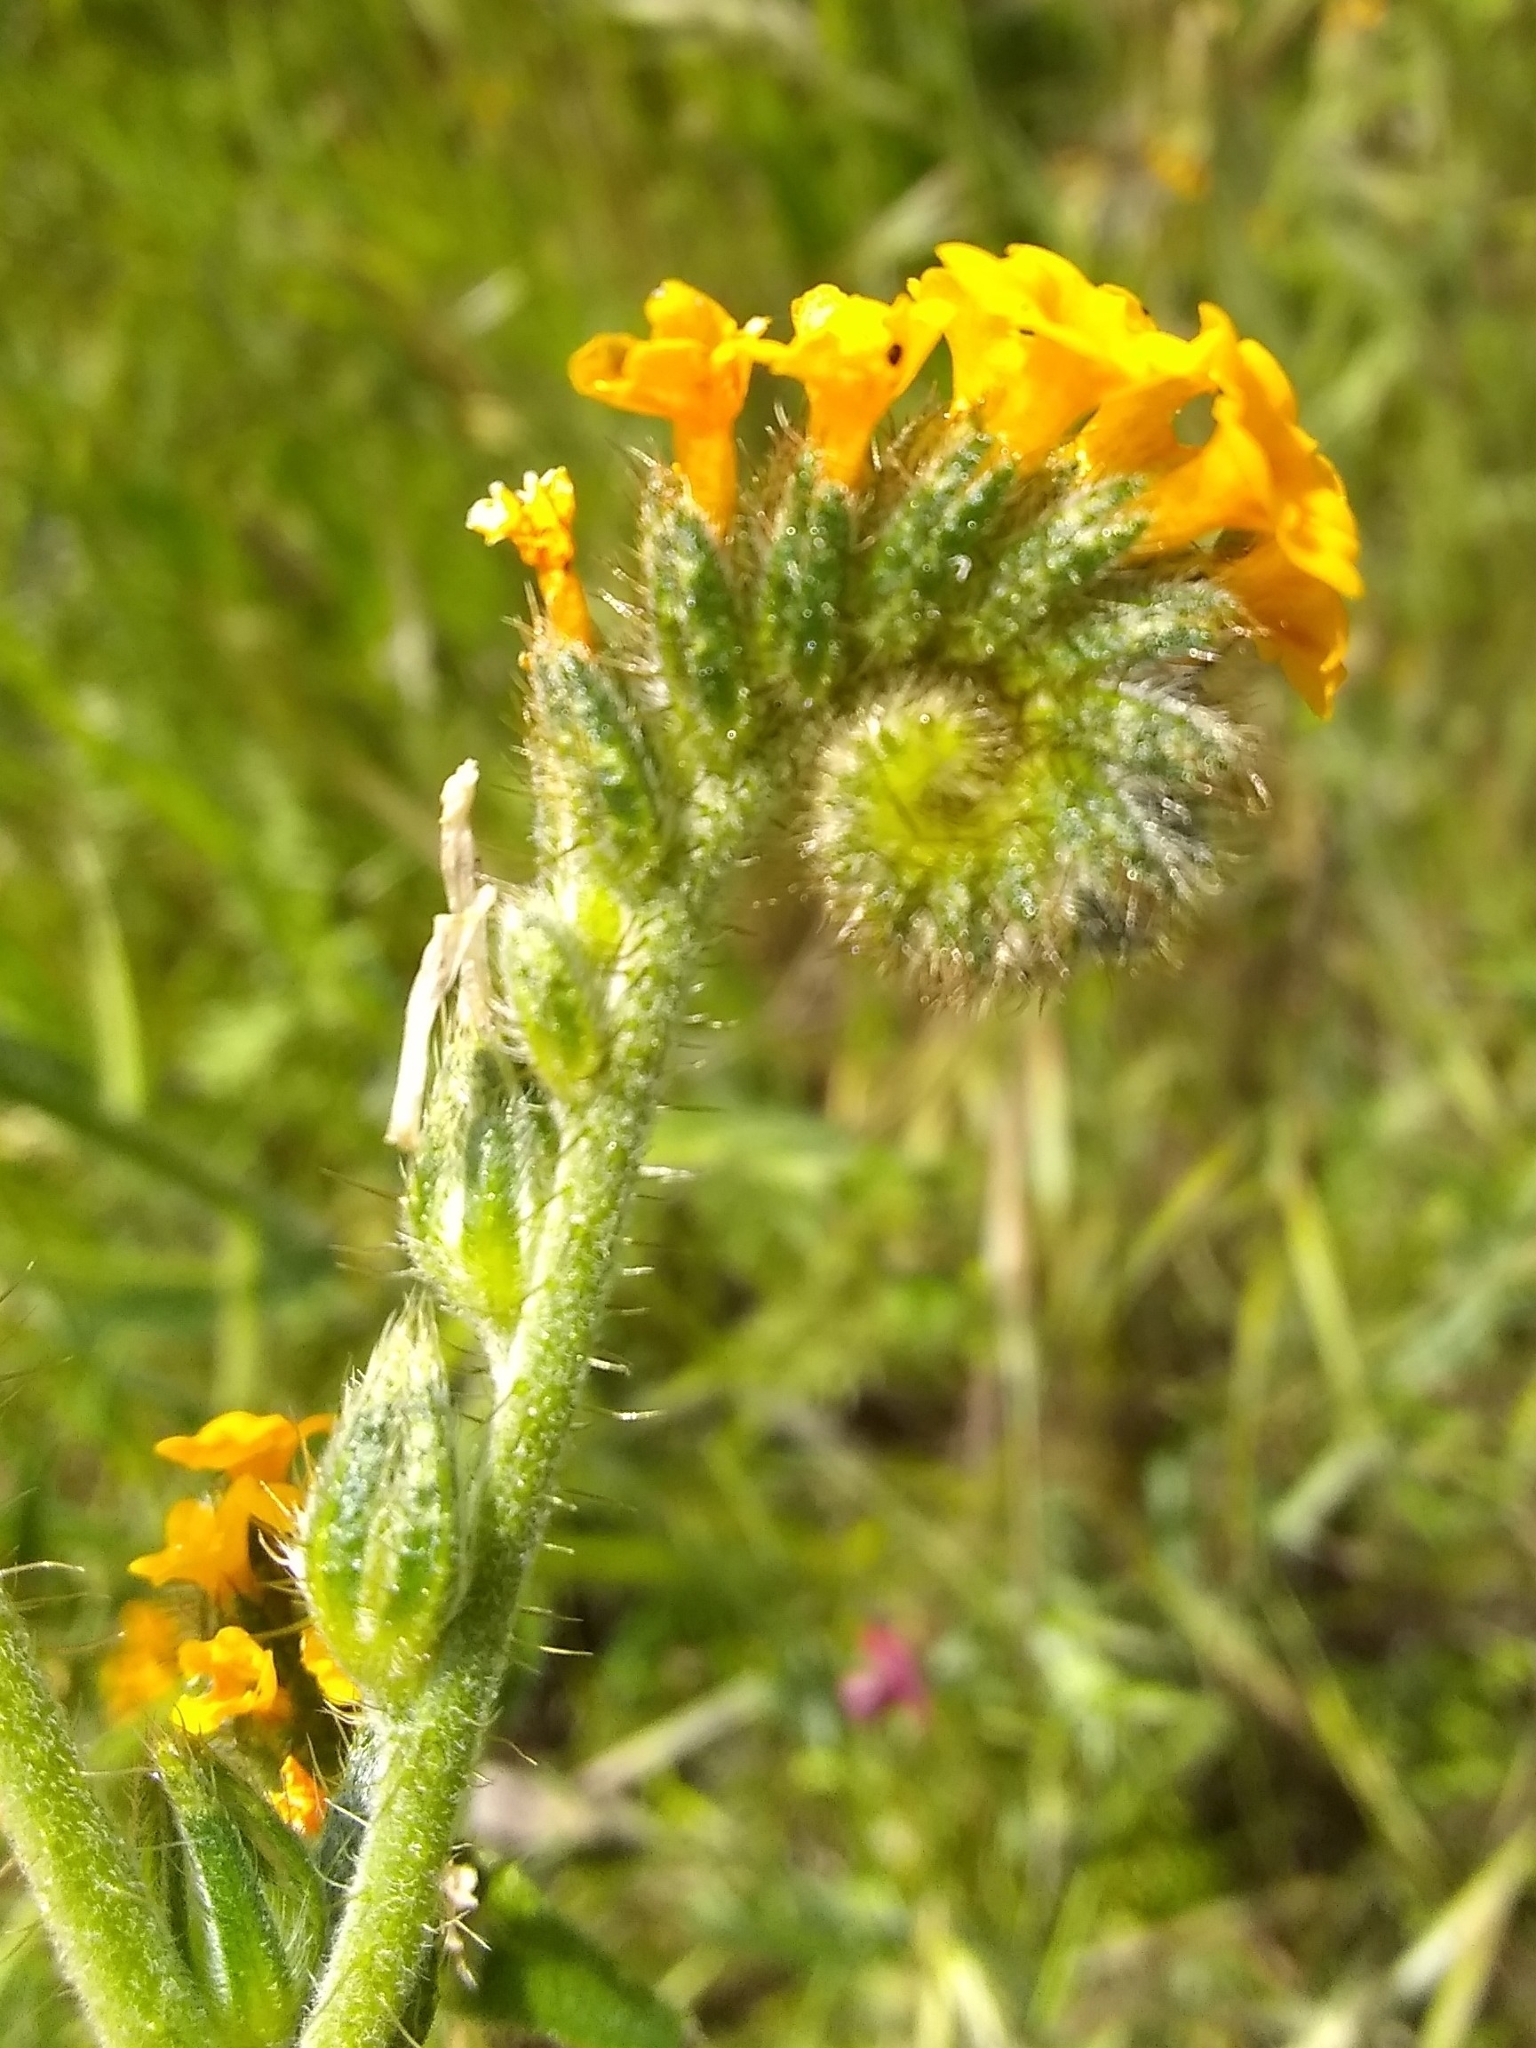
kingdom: Plantae
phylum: Tracheophyta
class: Magnoliopsida
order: Boraginales
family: Boraginaceae
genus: Amsinckia
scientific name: Amsinckia menziesii
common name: Menzies' fiddleneck
